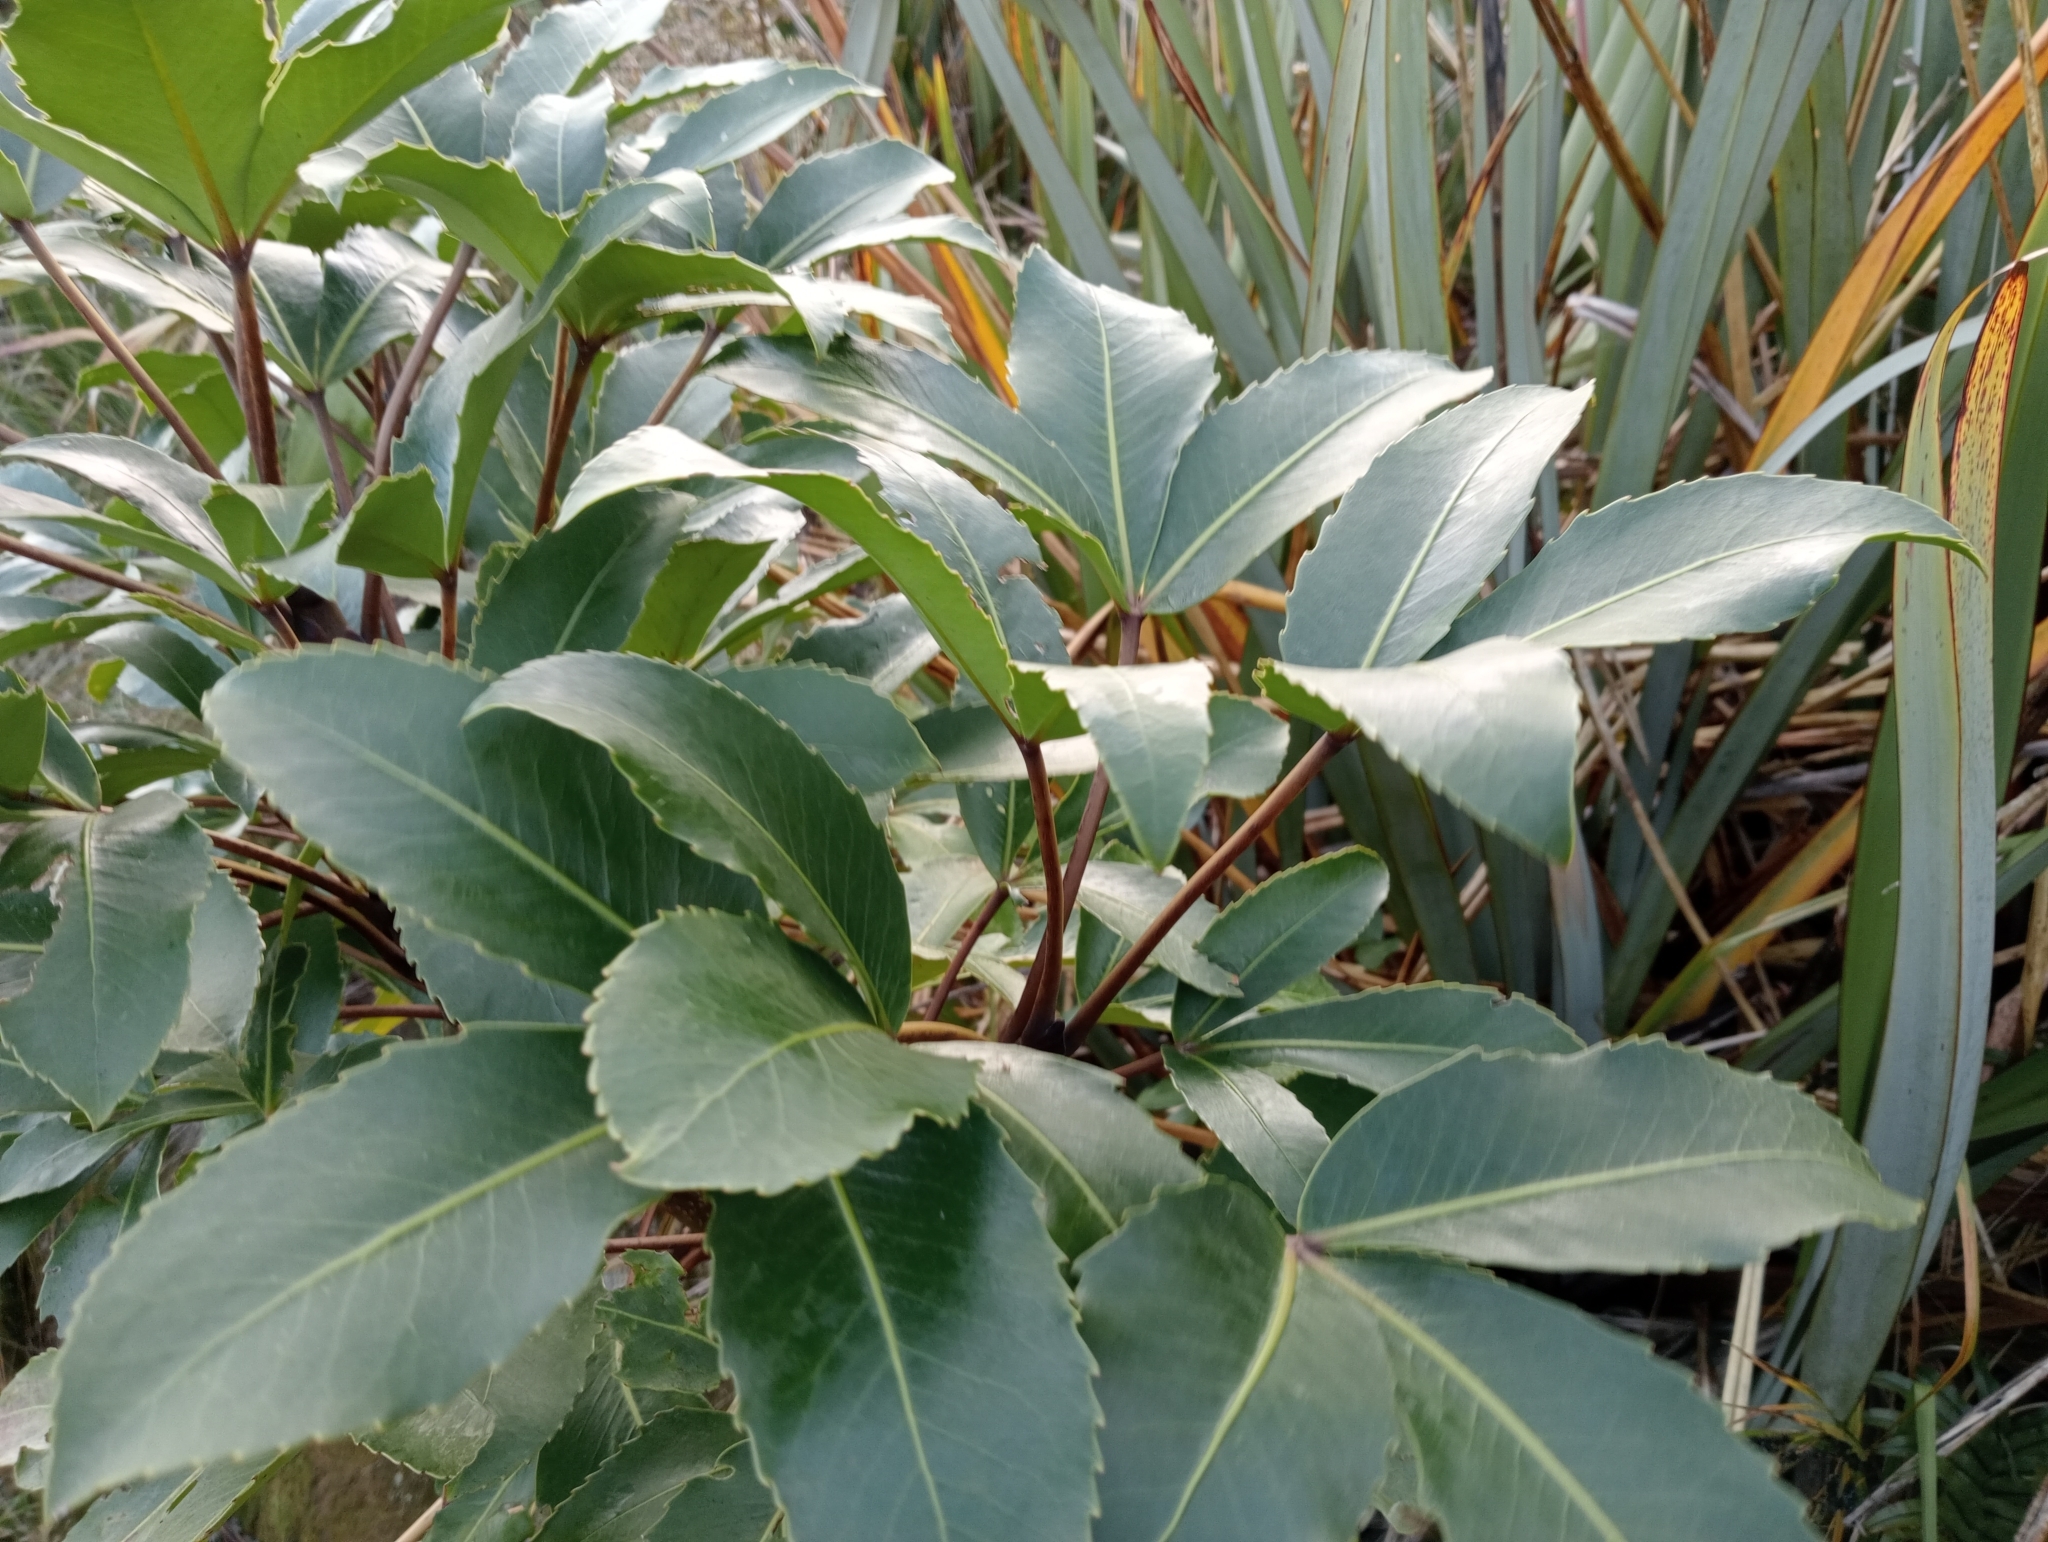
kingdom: Plantae
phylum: Tracheophyta
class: Magnoliopsida
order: Apiales
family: Araliaceae
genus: Neopanax
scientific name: Neopanax colensoi
